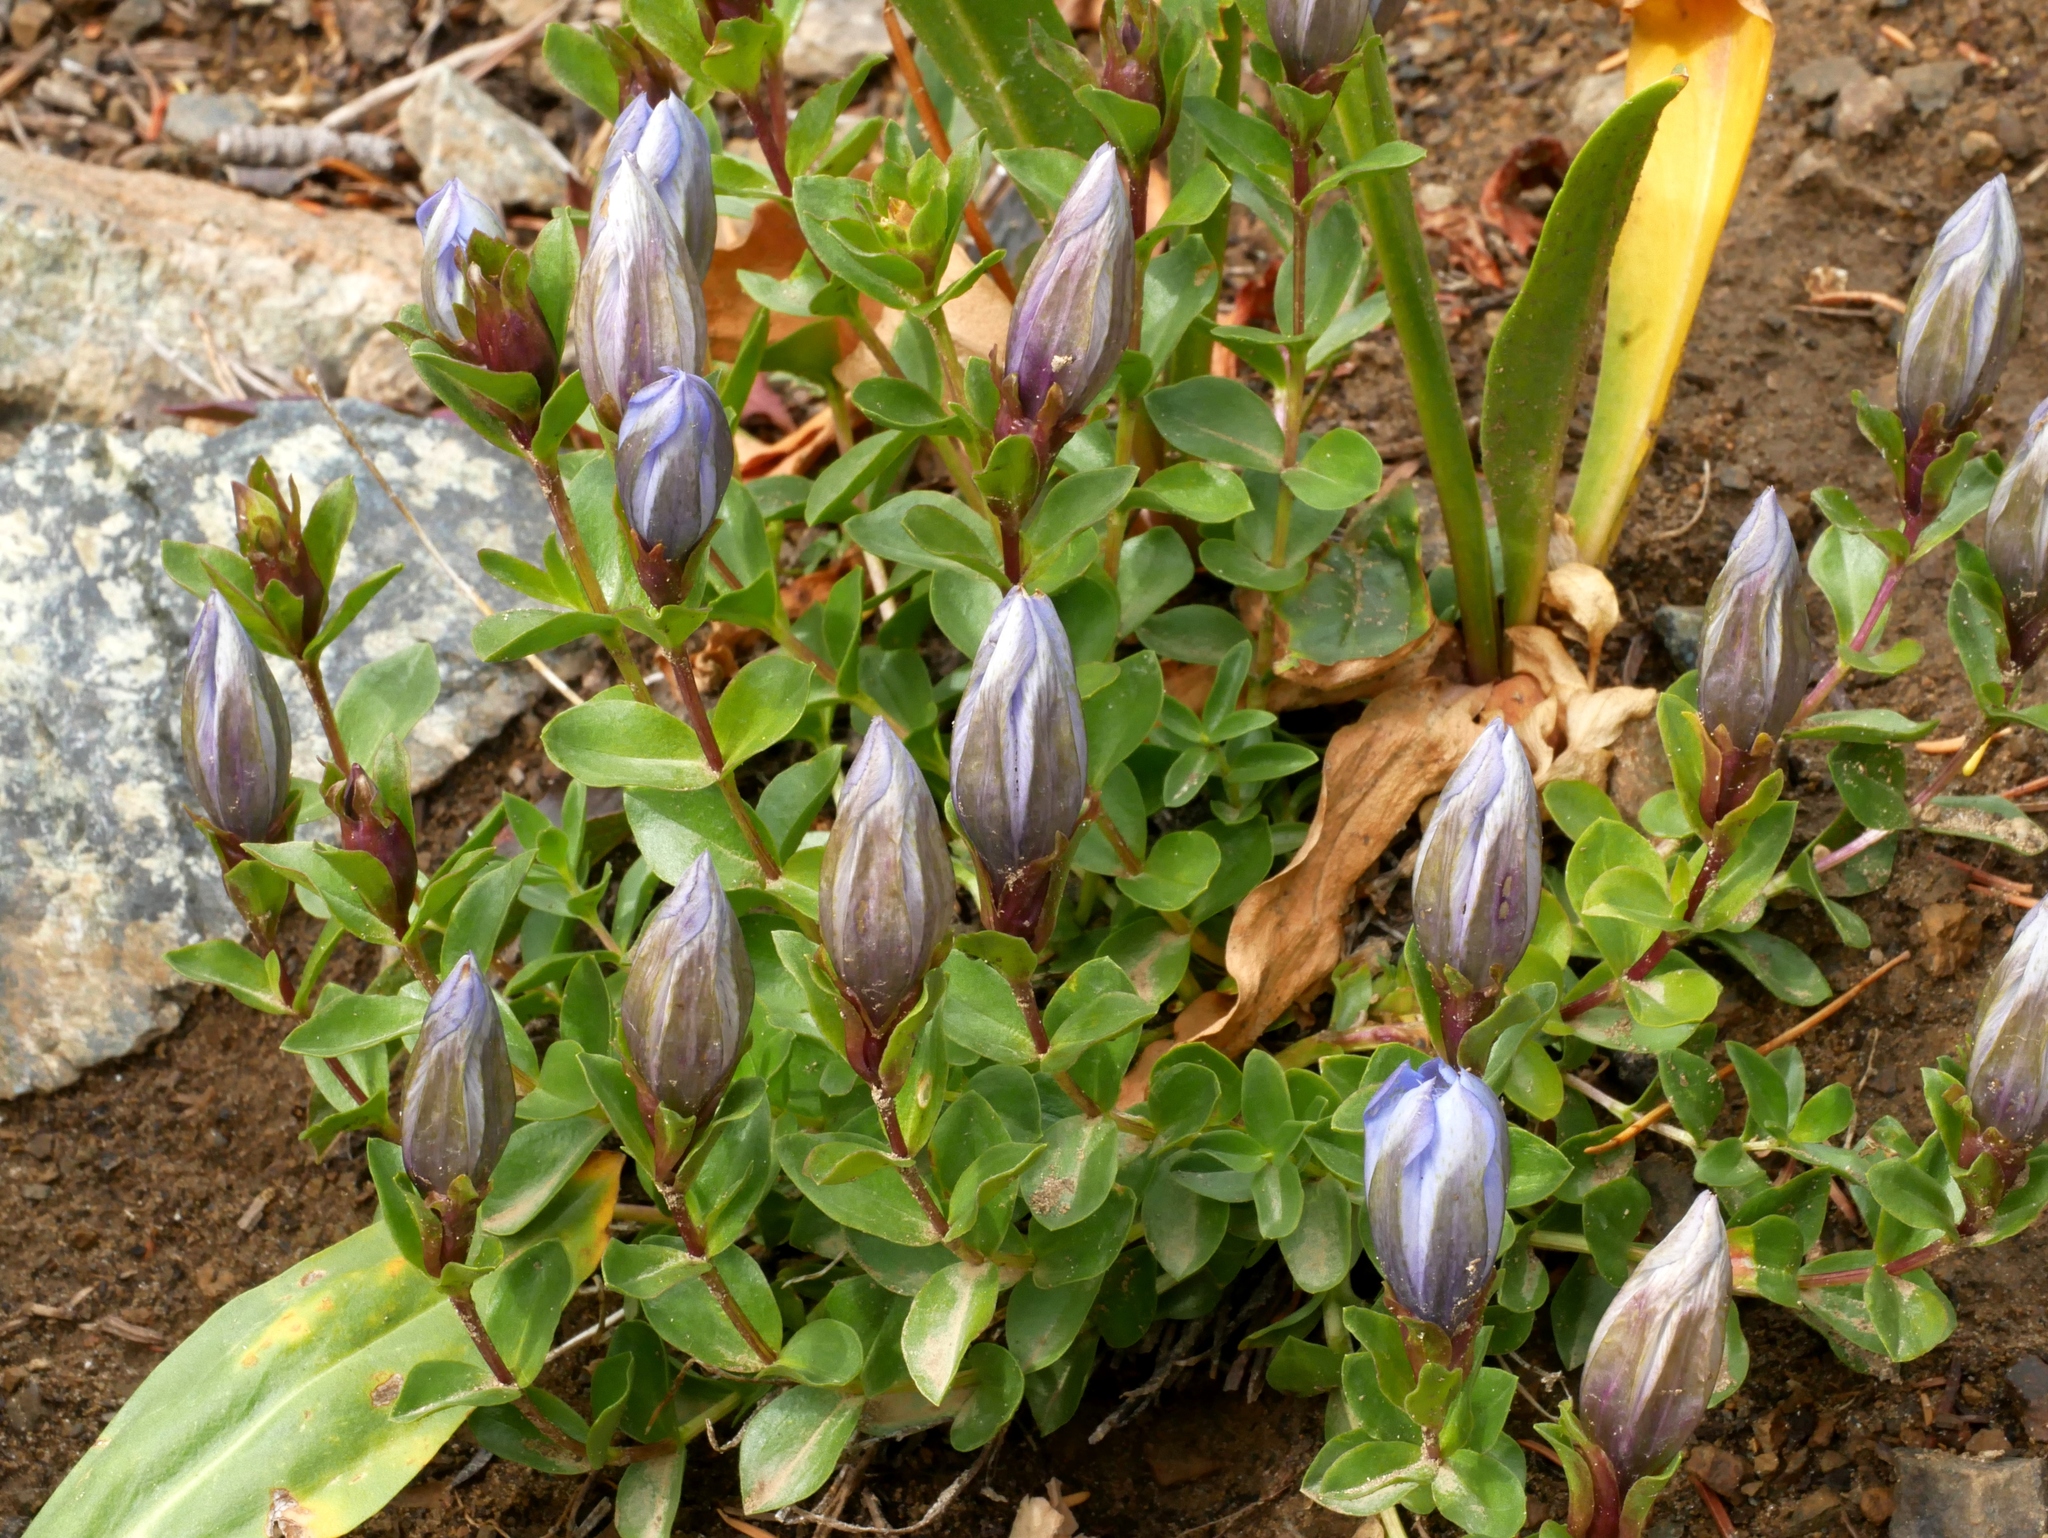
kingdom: Plantae
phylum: Tracheophyta
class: Magnoliopsida
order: Gentianales
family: Gentianaceae
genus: Gentiana
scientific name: Gentiana calycosa
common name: Rainier pleated gentian
